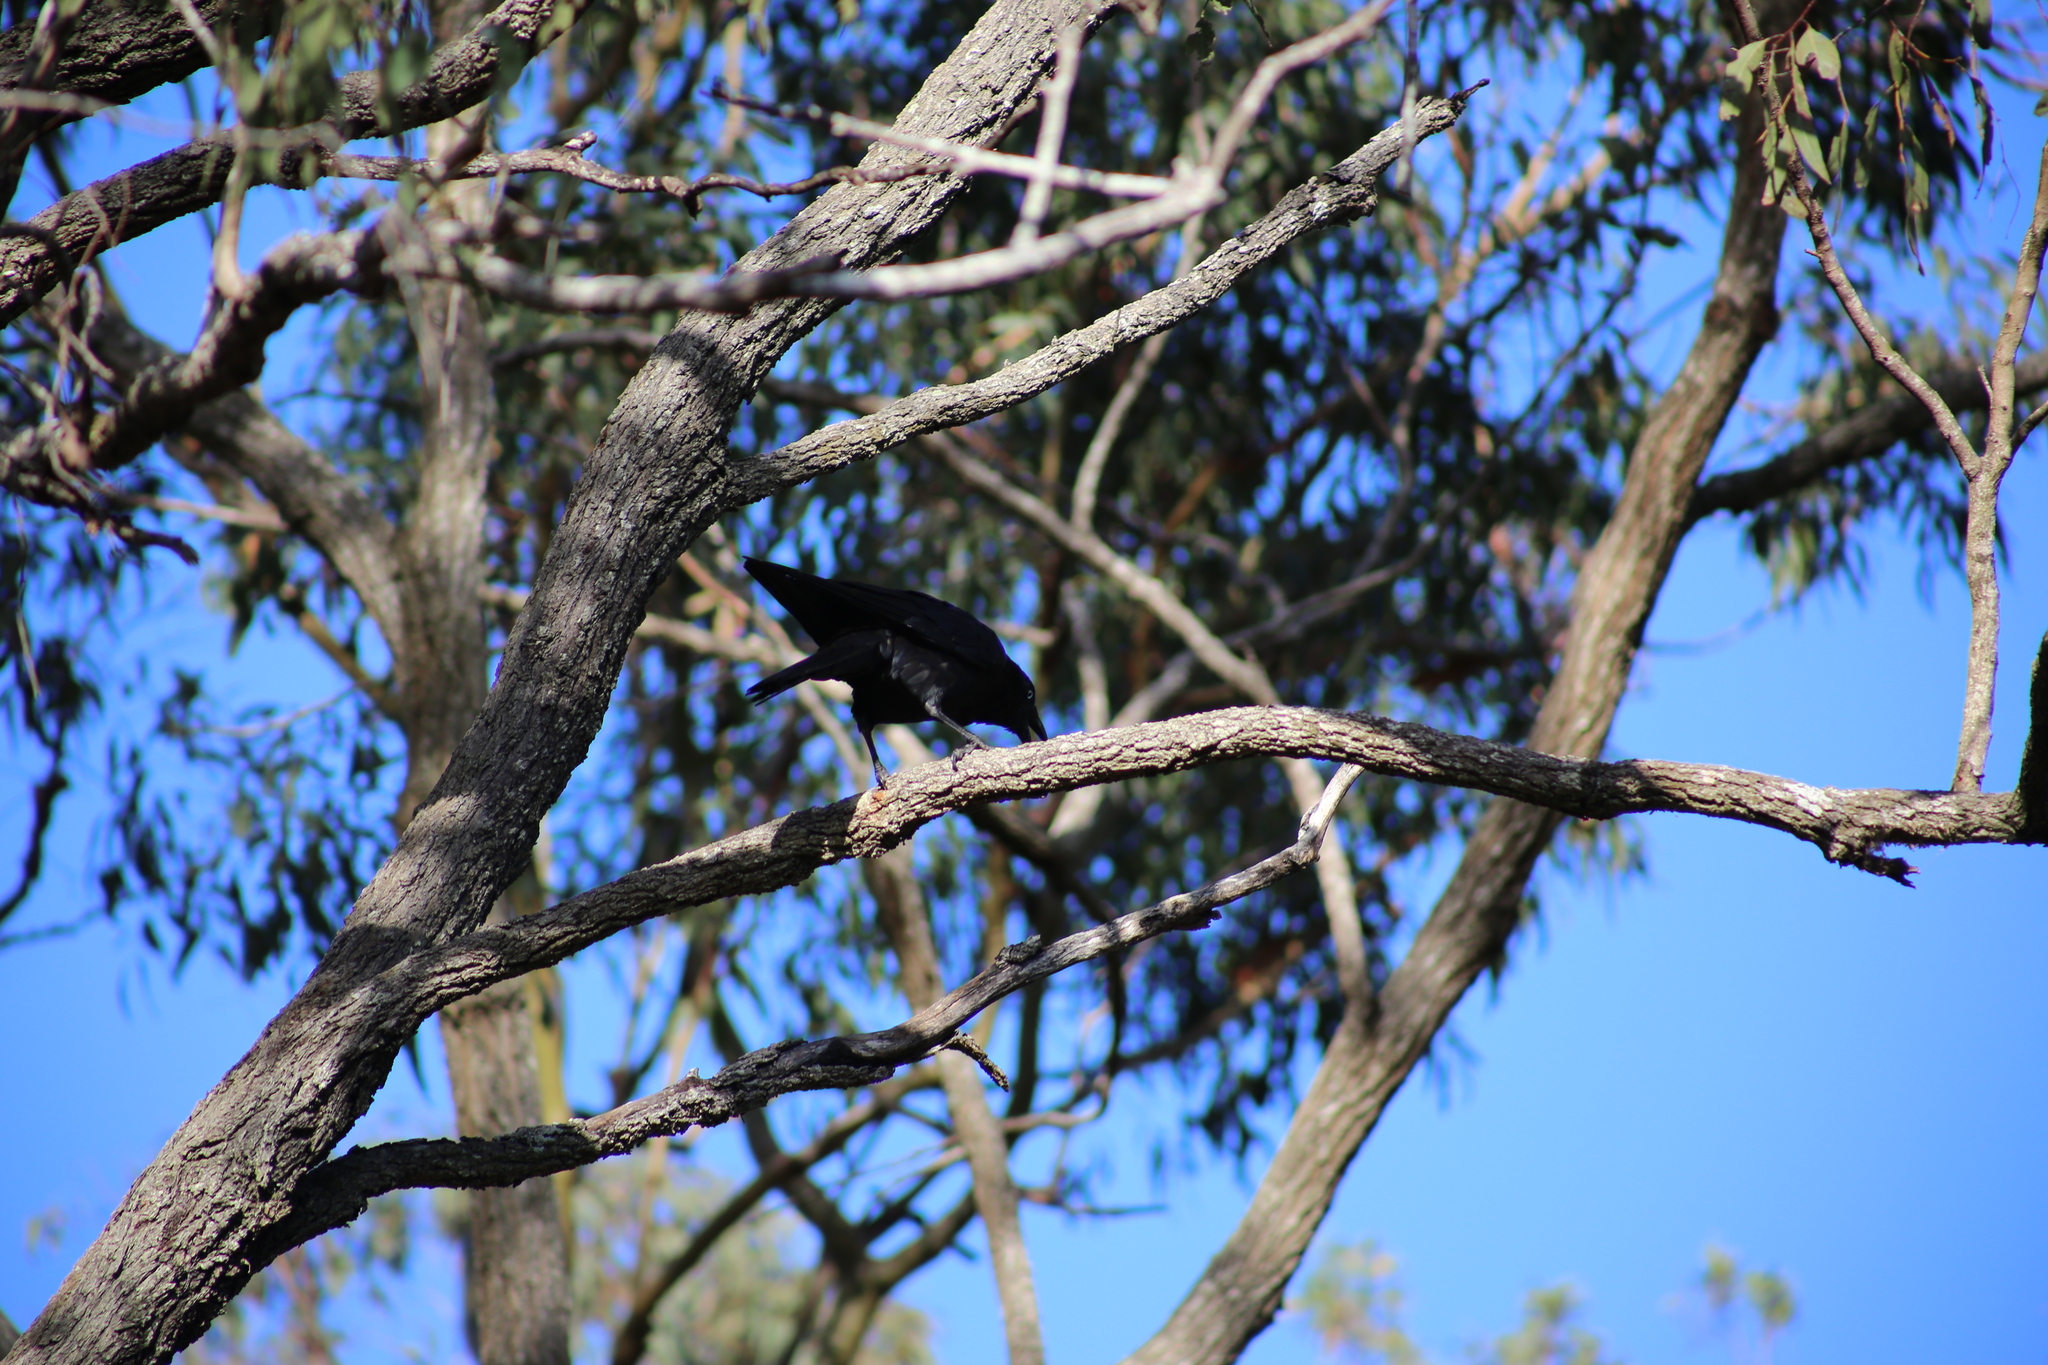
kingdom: Animalia
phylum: Chordata
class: Aves
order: Passeriformes
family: Corvidae
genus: Corvus
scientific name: Corvus orru
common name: Torresian crow
